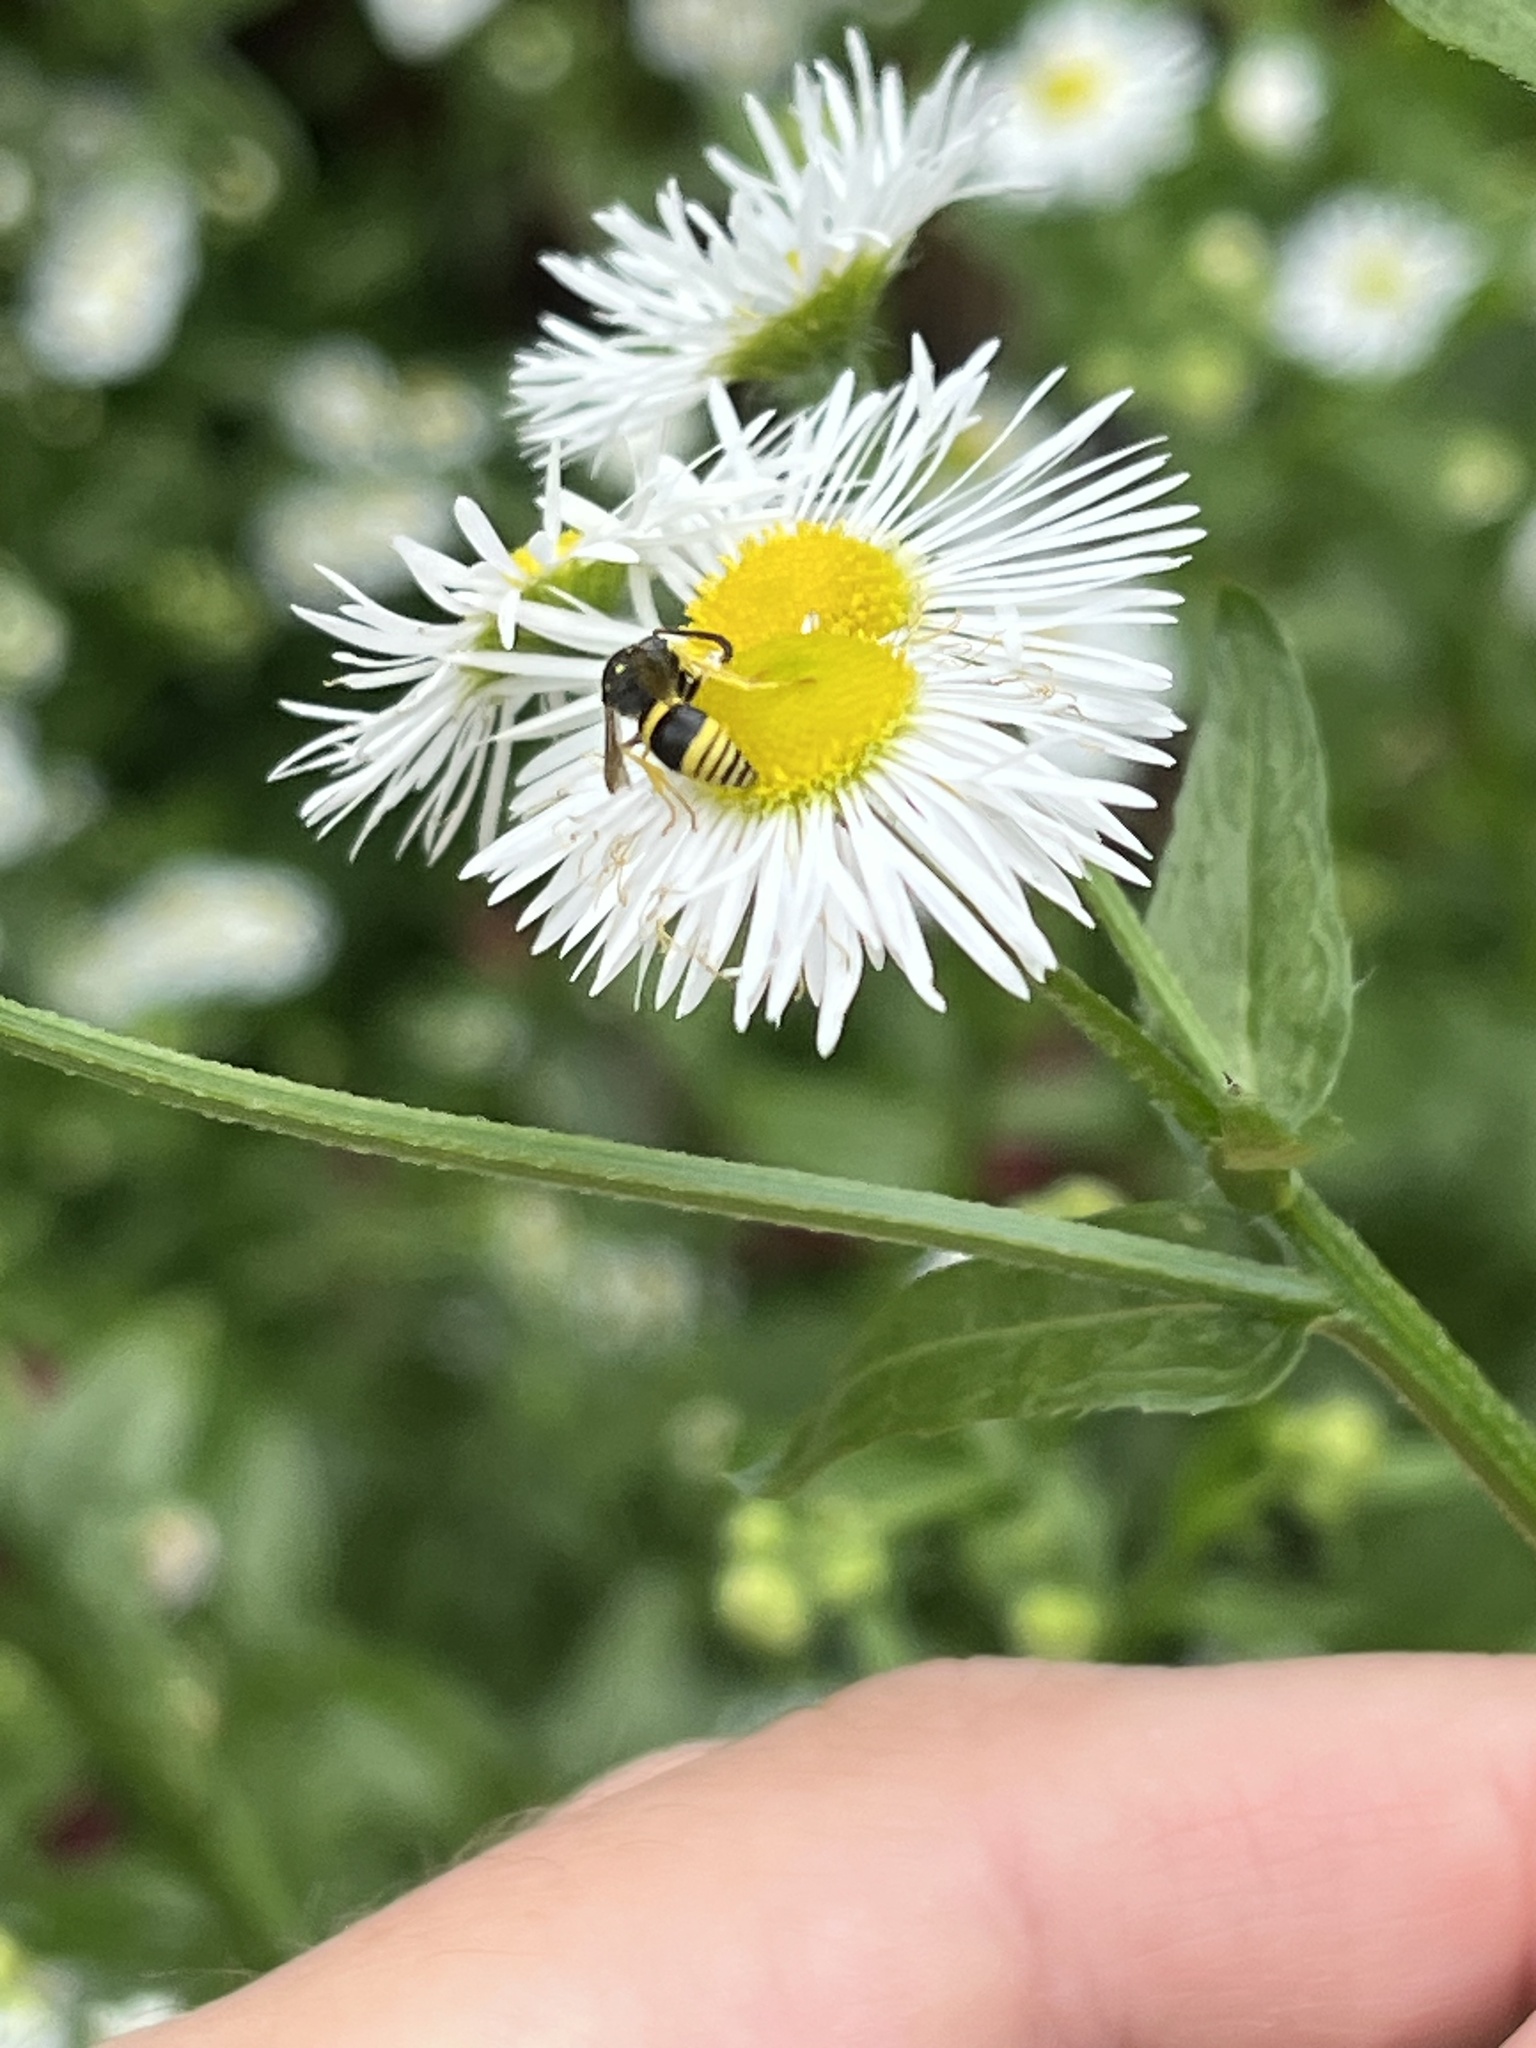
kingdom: Animalia
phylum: Arthropoda
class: Insecta
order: Hymenoptera
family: Vespidae
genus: Ancistrocerus
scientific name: Ancistrocerus parietinus
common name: Wall mason wasp
